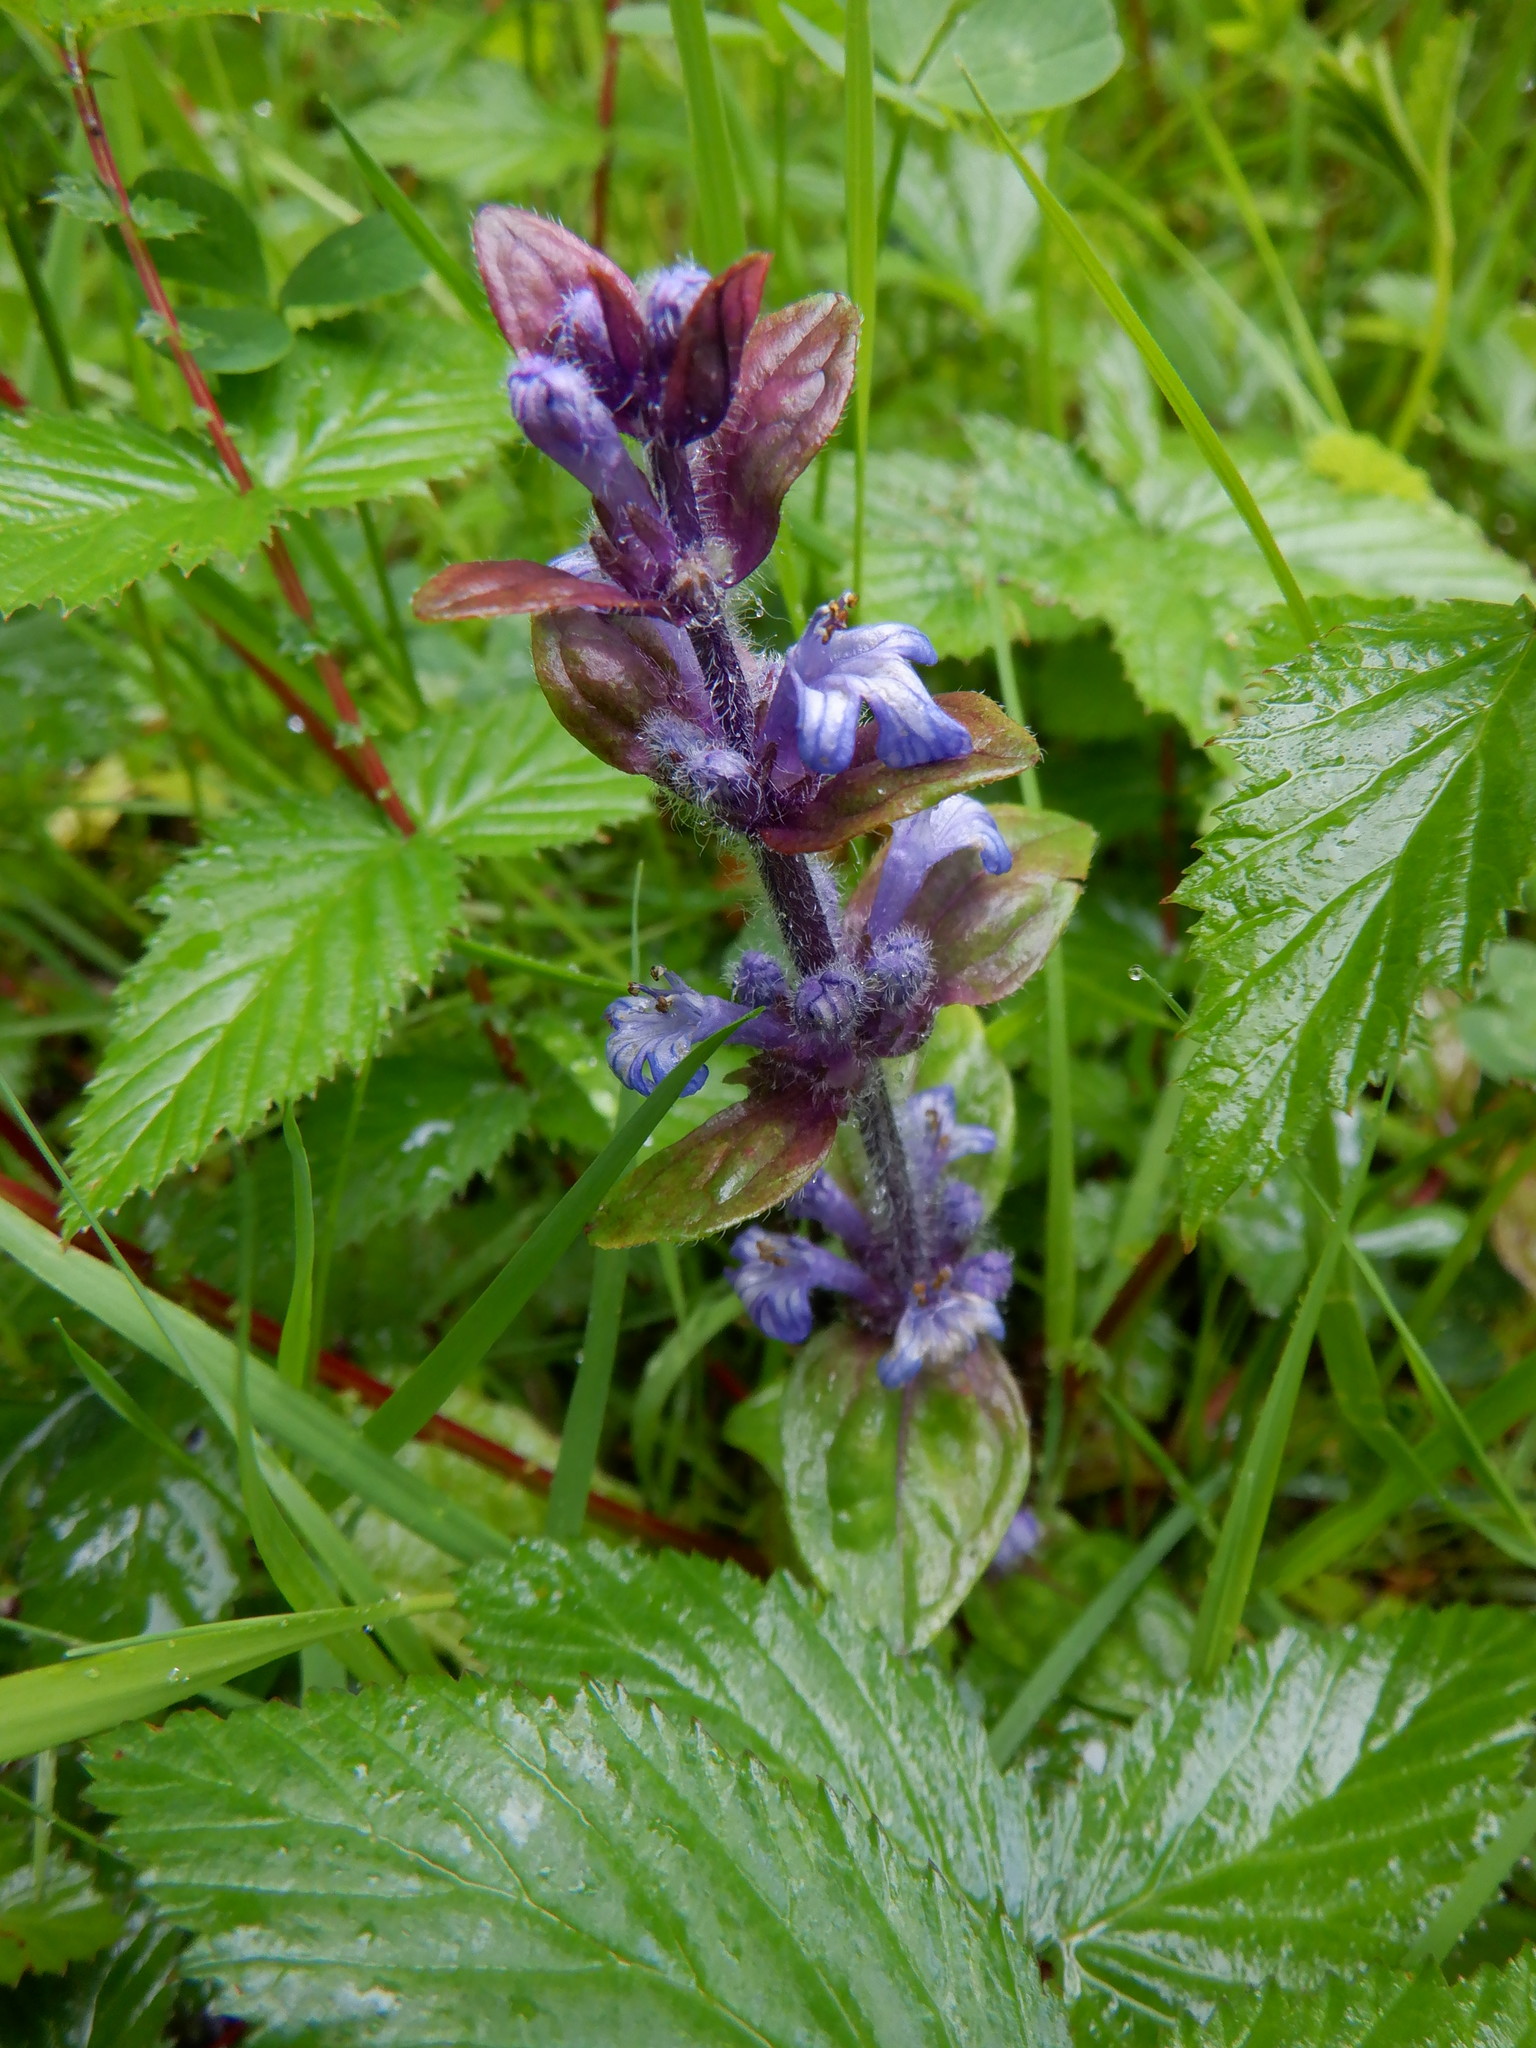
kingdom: Plantae
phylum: Tracheophyta
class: Magnoliopsida
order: Lamiales
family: Lamiaceae
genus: Ajuga
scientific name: Ajuga reptans
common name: Bugle
